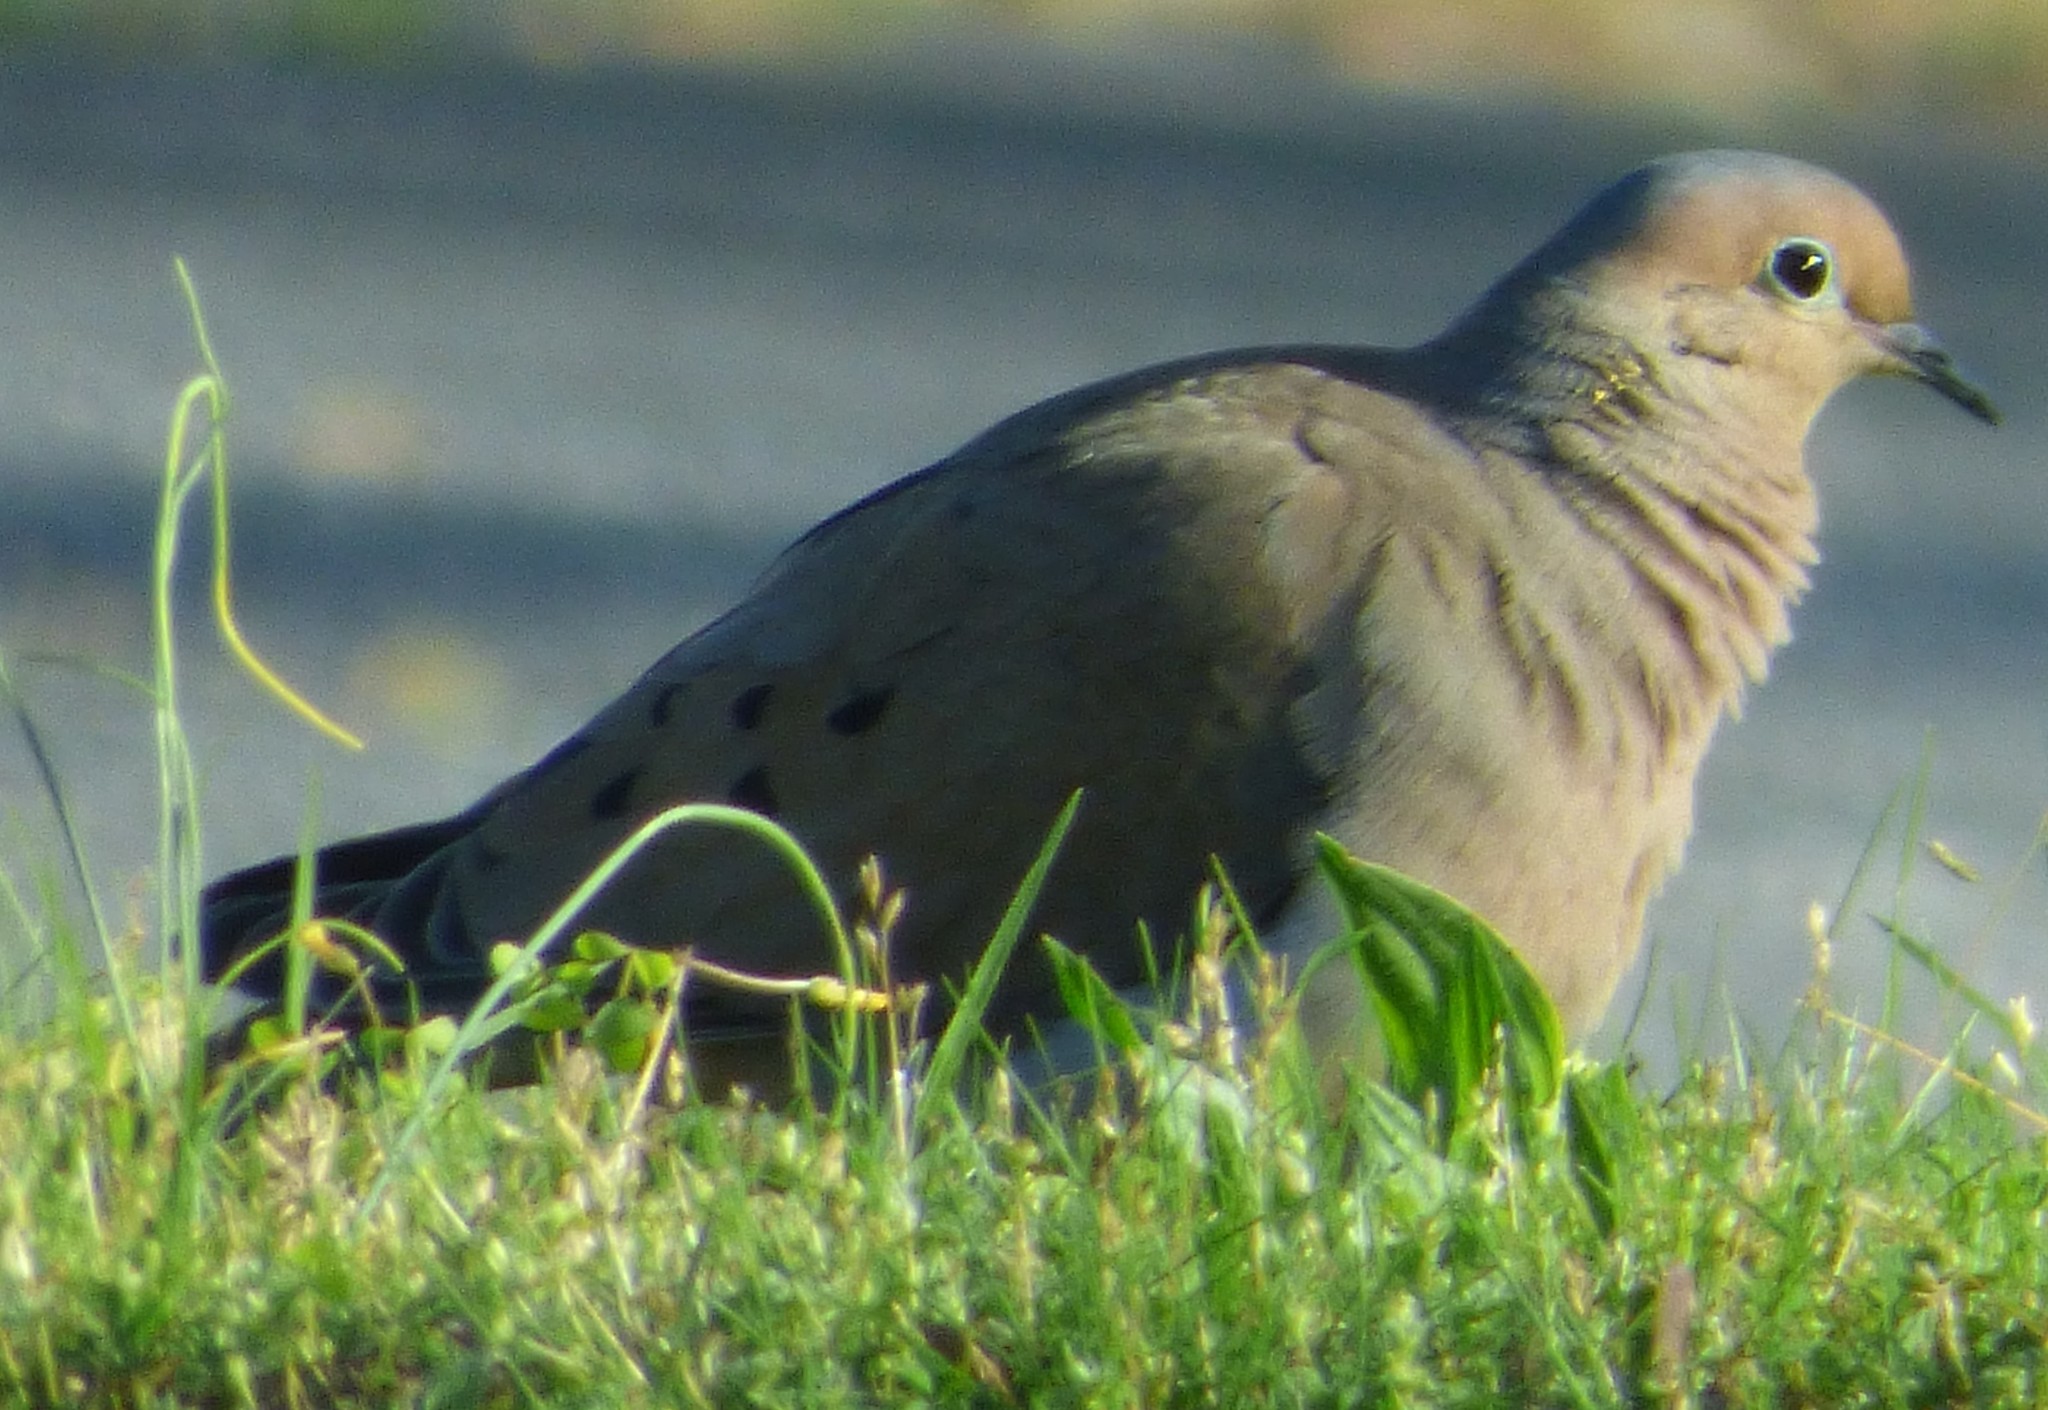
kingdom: Animalia
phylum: Chordata
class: Aves
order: Columbiformes
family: Columbidae
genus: Zenaida
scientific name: Zenaida macroura
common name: Mourning dove
